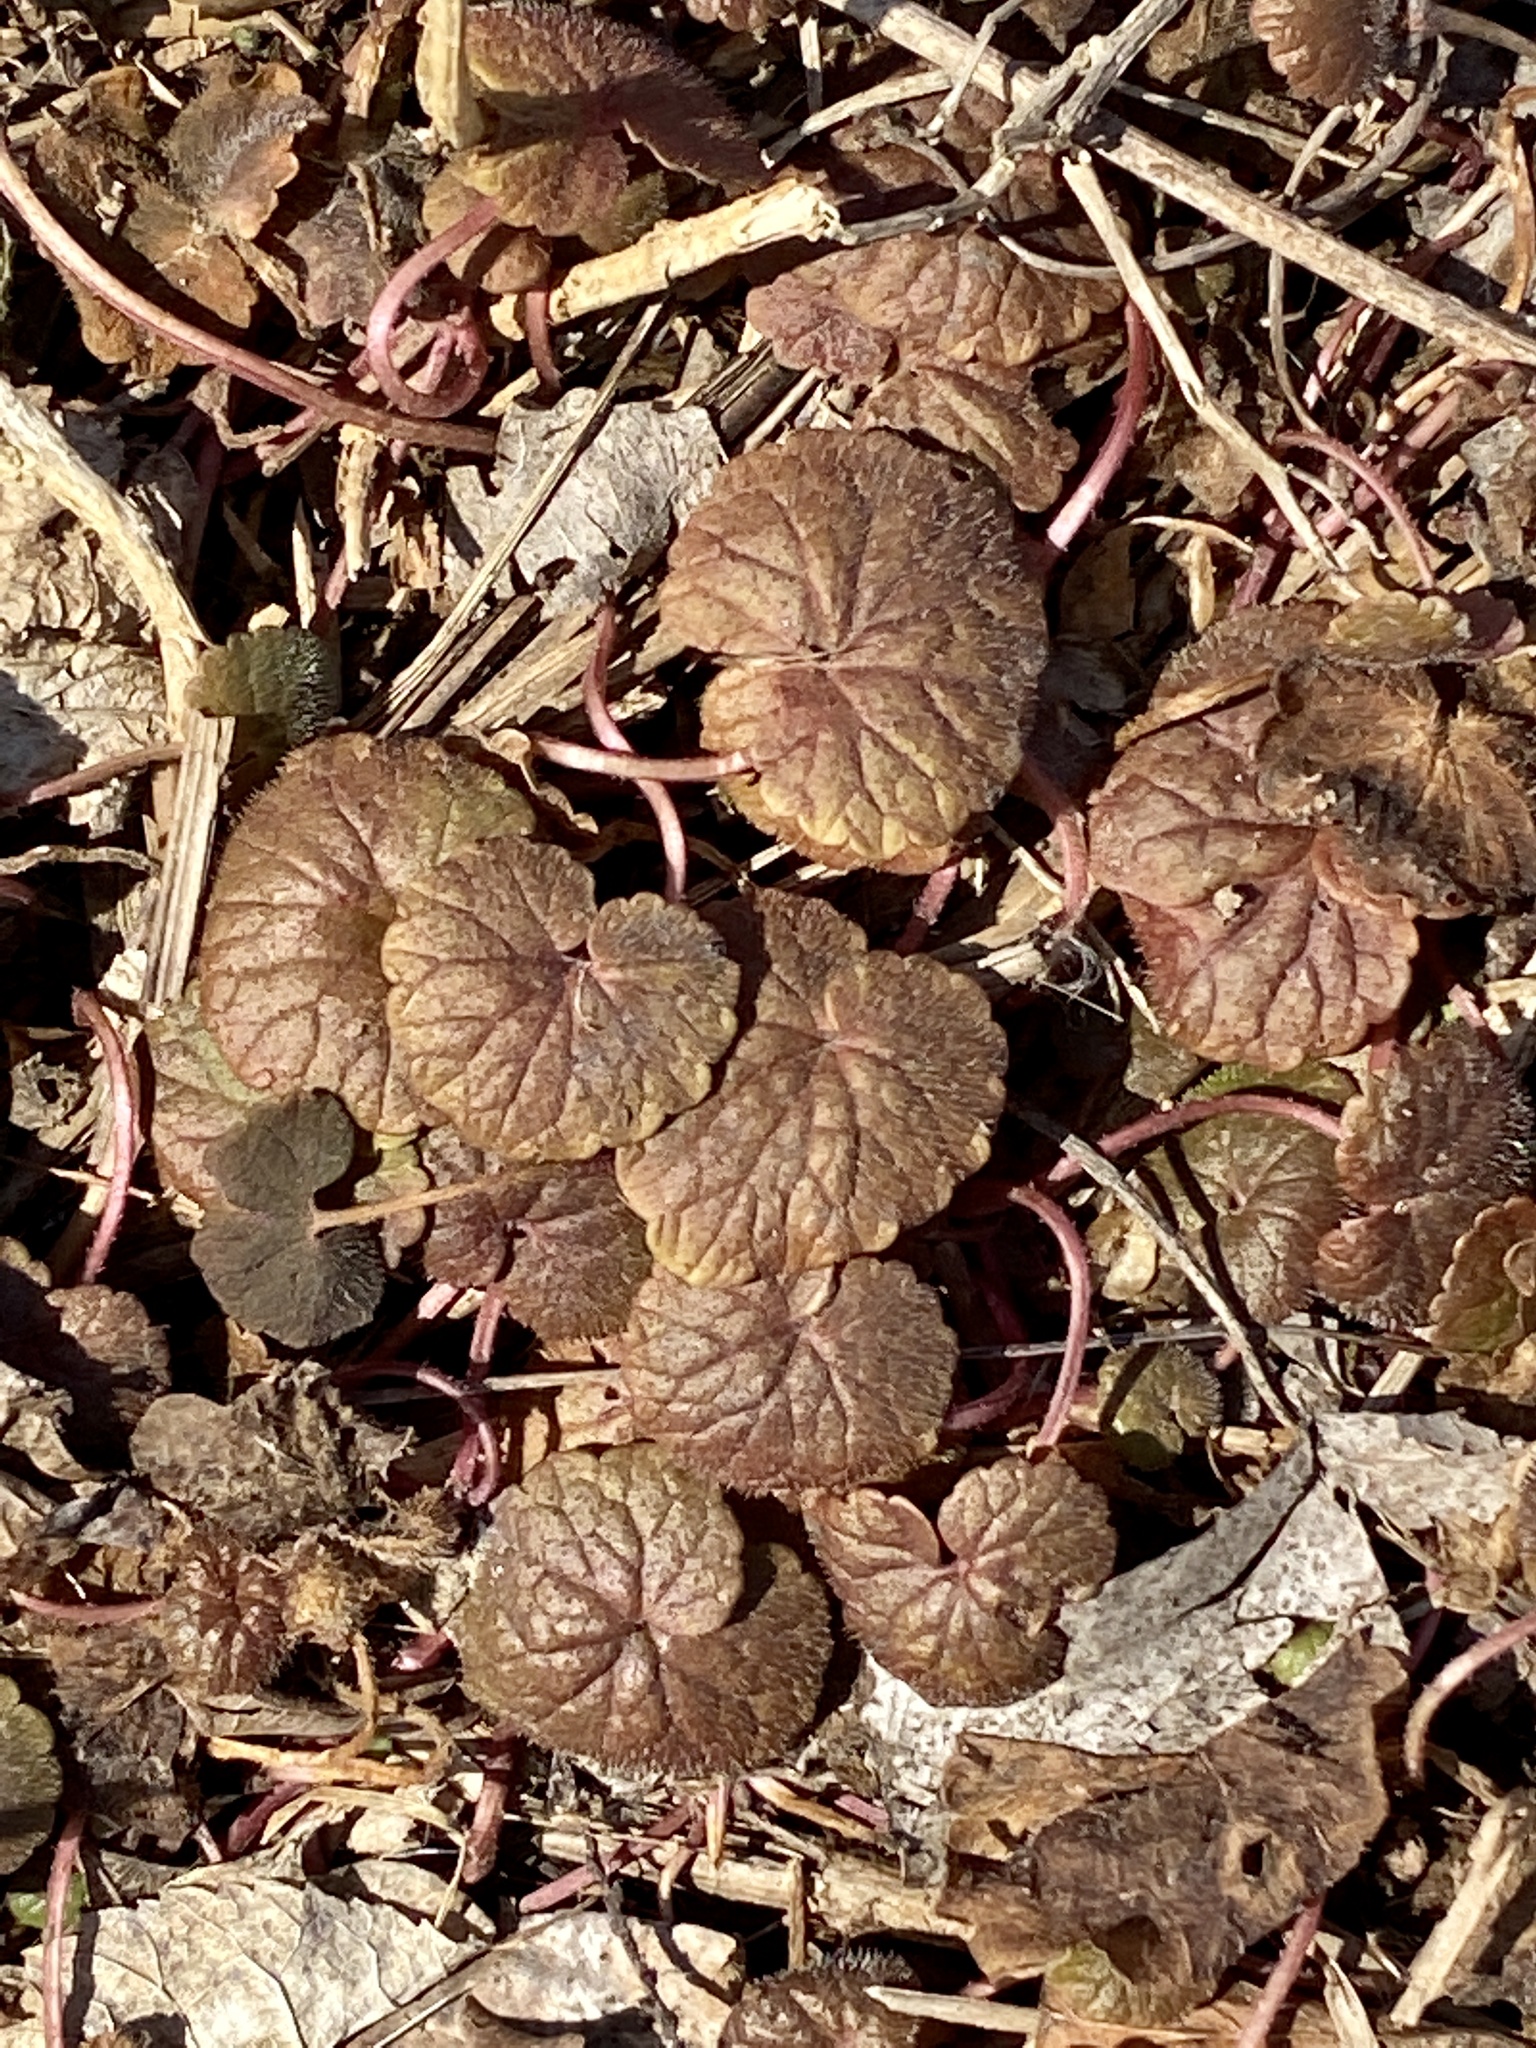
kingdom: Plantae
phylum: Tracheophyta
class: Magnoliopsida
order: Lamiales
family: Lamiaceae
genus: Glechoma
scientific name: Glechoma hederacea
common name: Ground ivy
